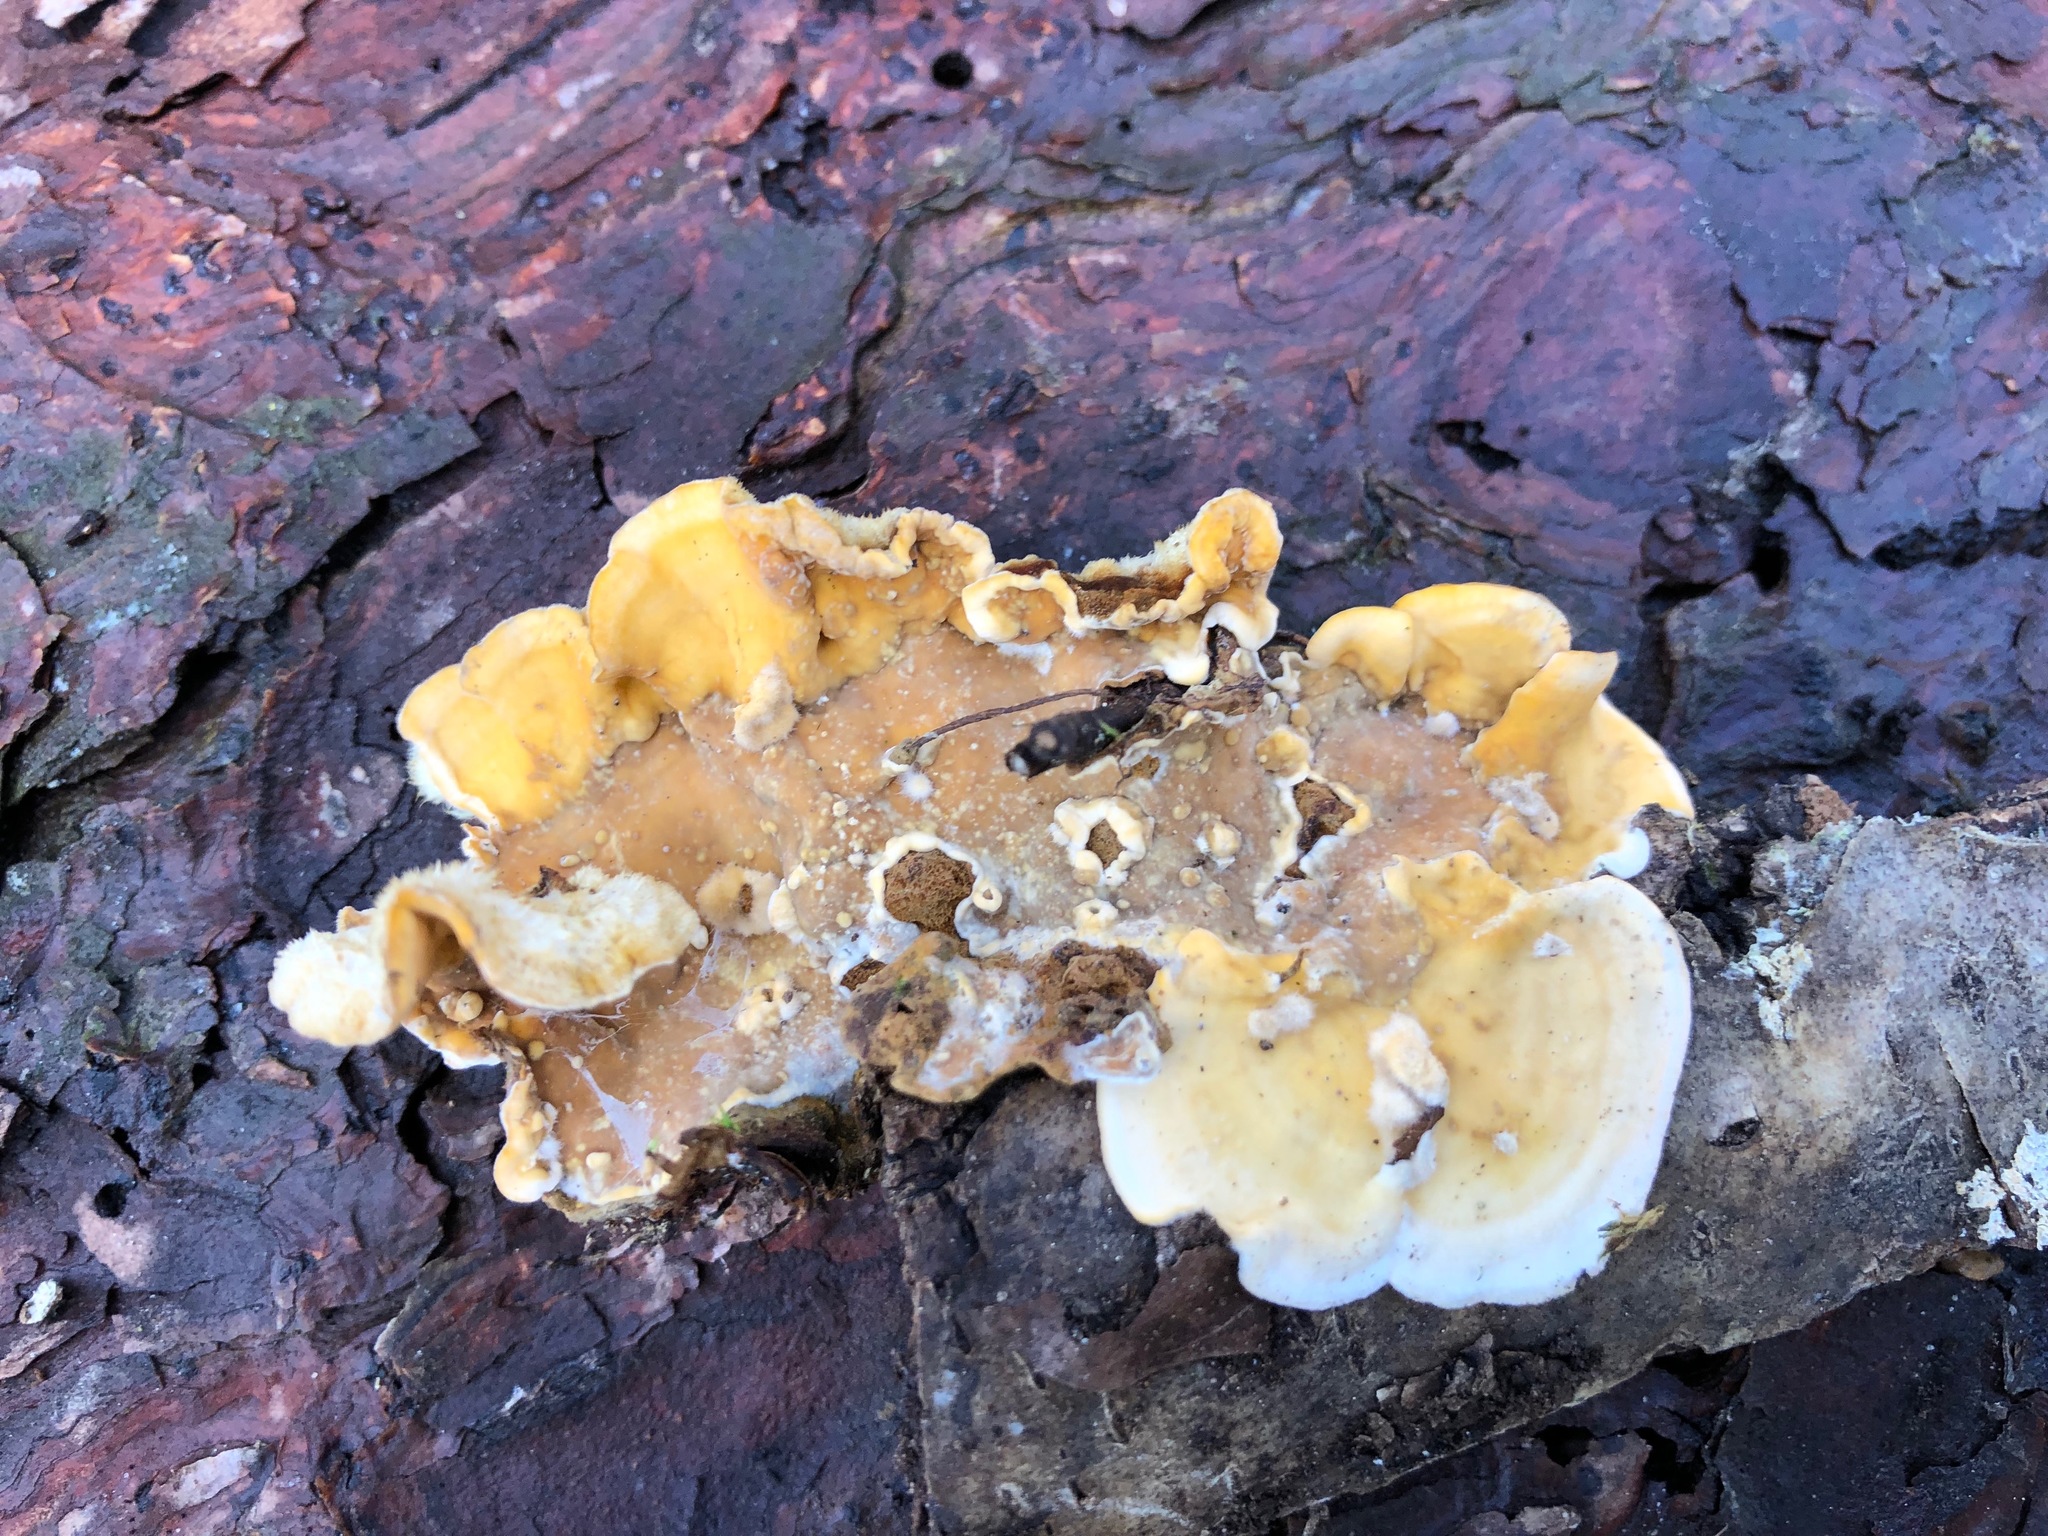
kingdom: Fungi
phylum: Basidiomycota
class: Agaricomycetes
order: Russulales
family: Stereaceae
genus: Stereum
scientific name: Stereum hirsutum
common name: Hairy curtain crust
